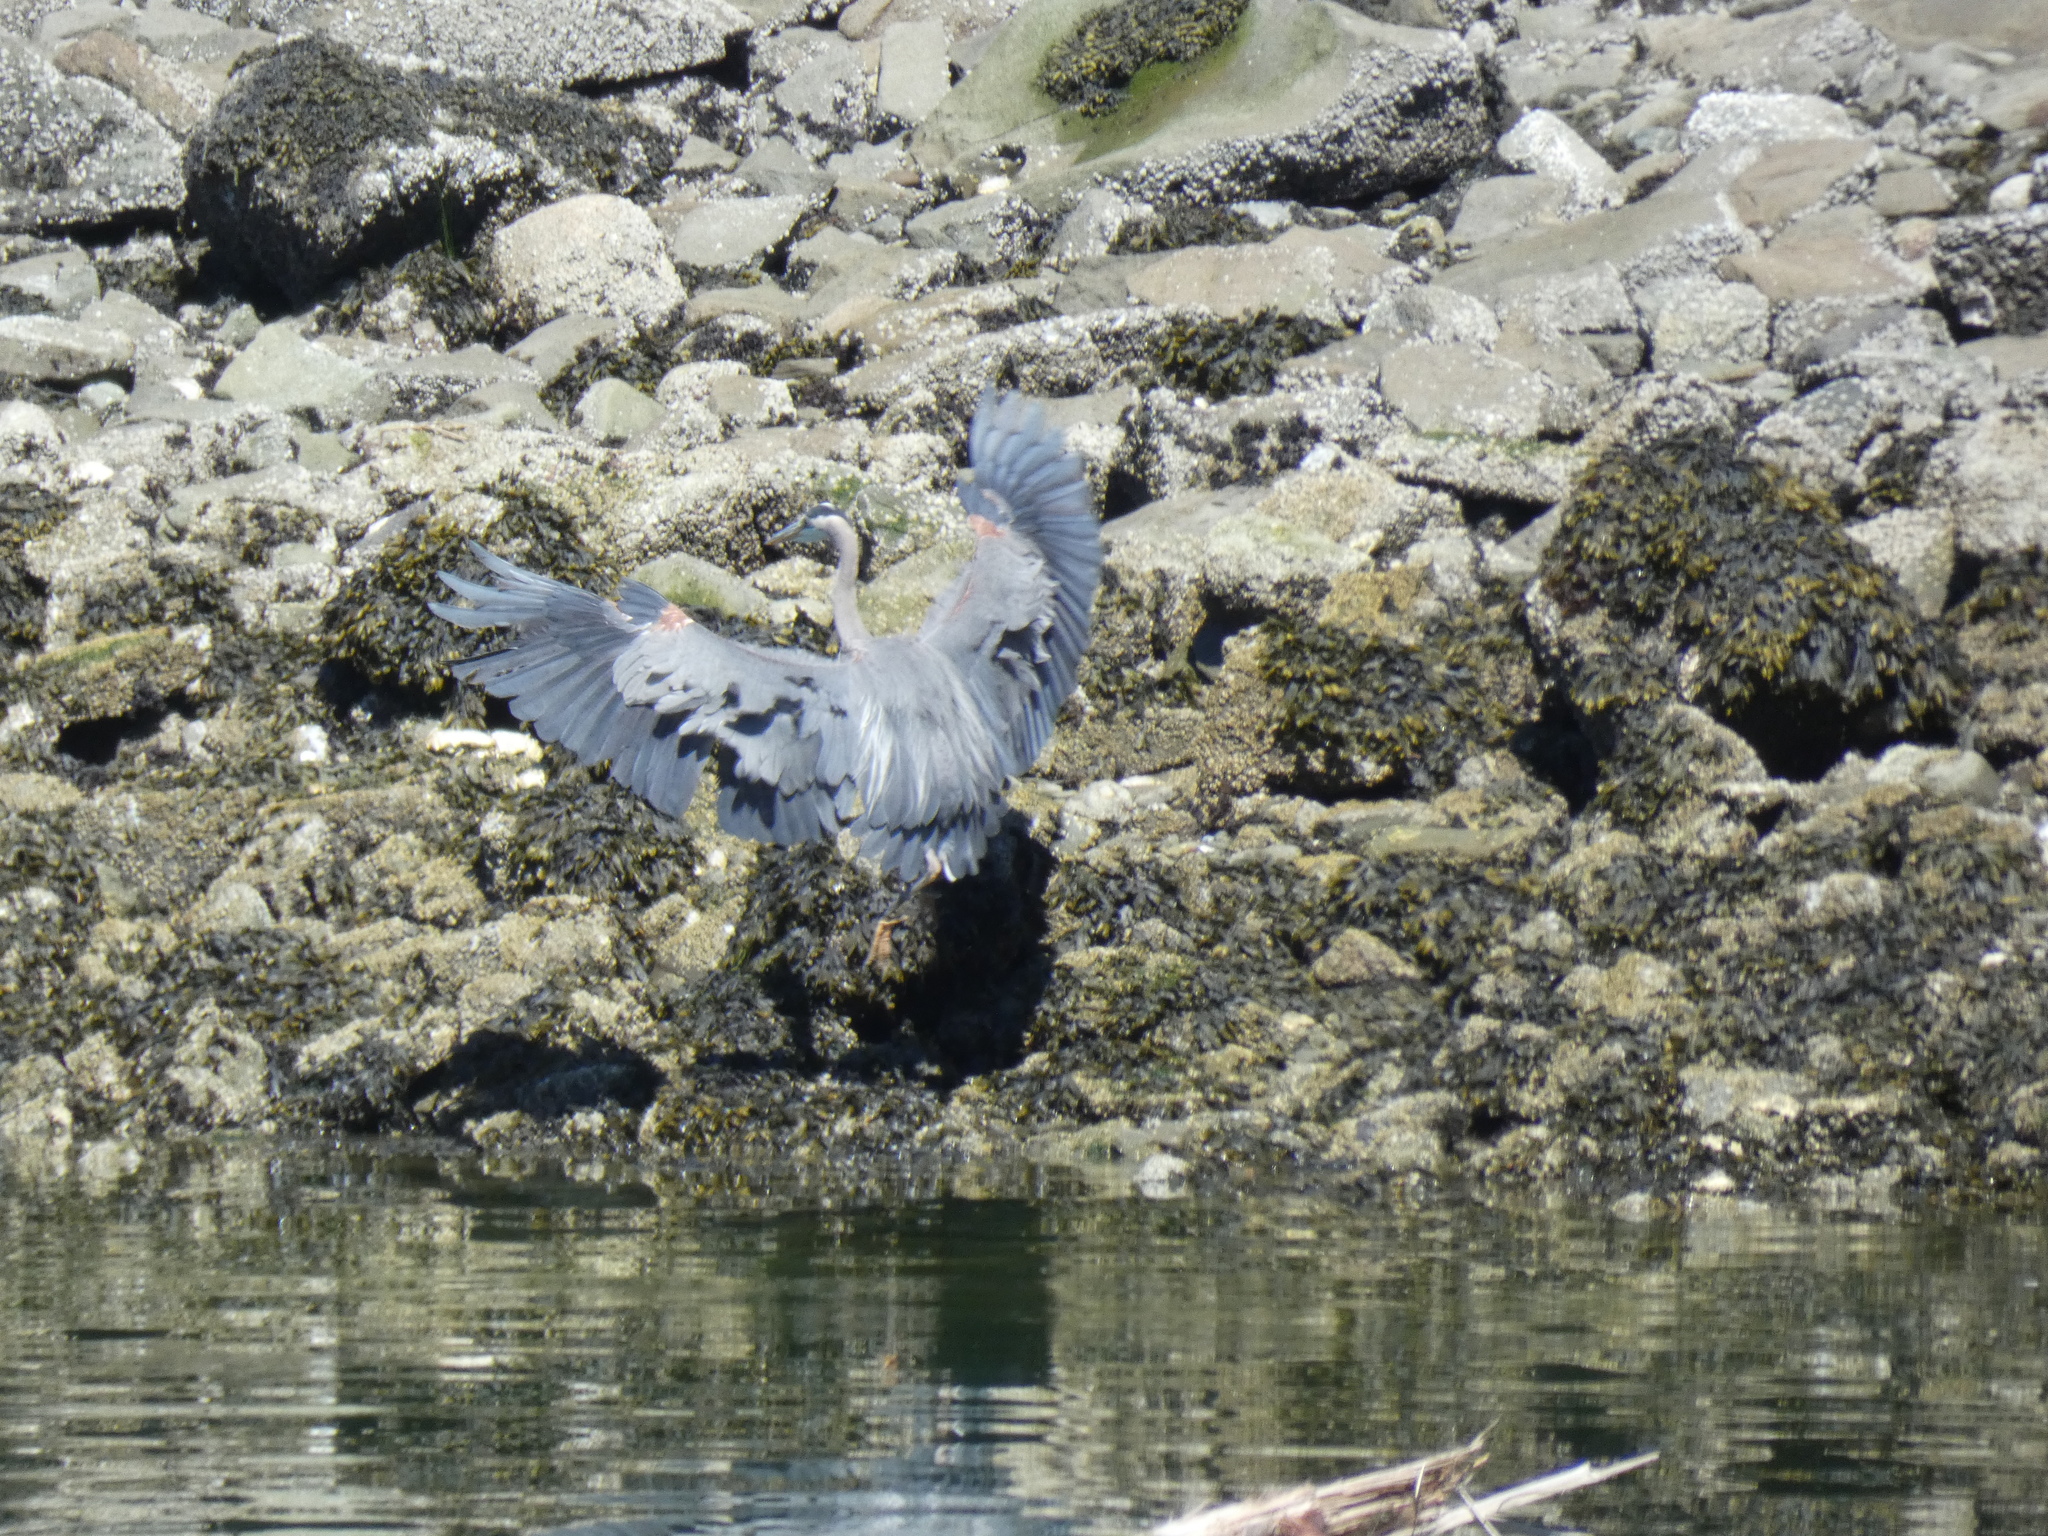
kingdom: Animalia
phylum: Chordata
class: Aves
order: Pelecaniformes
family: Ardeidae
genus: Ardea
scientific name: Ardea herodias
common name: Great blue heron
